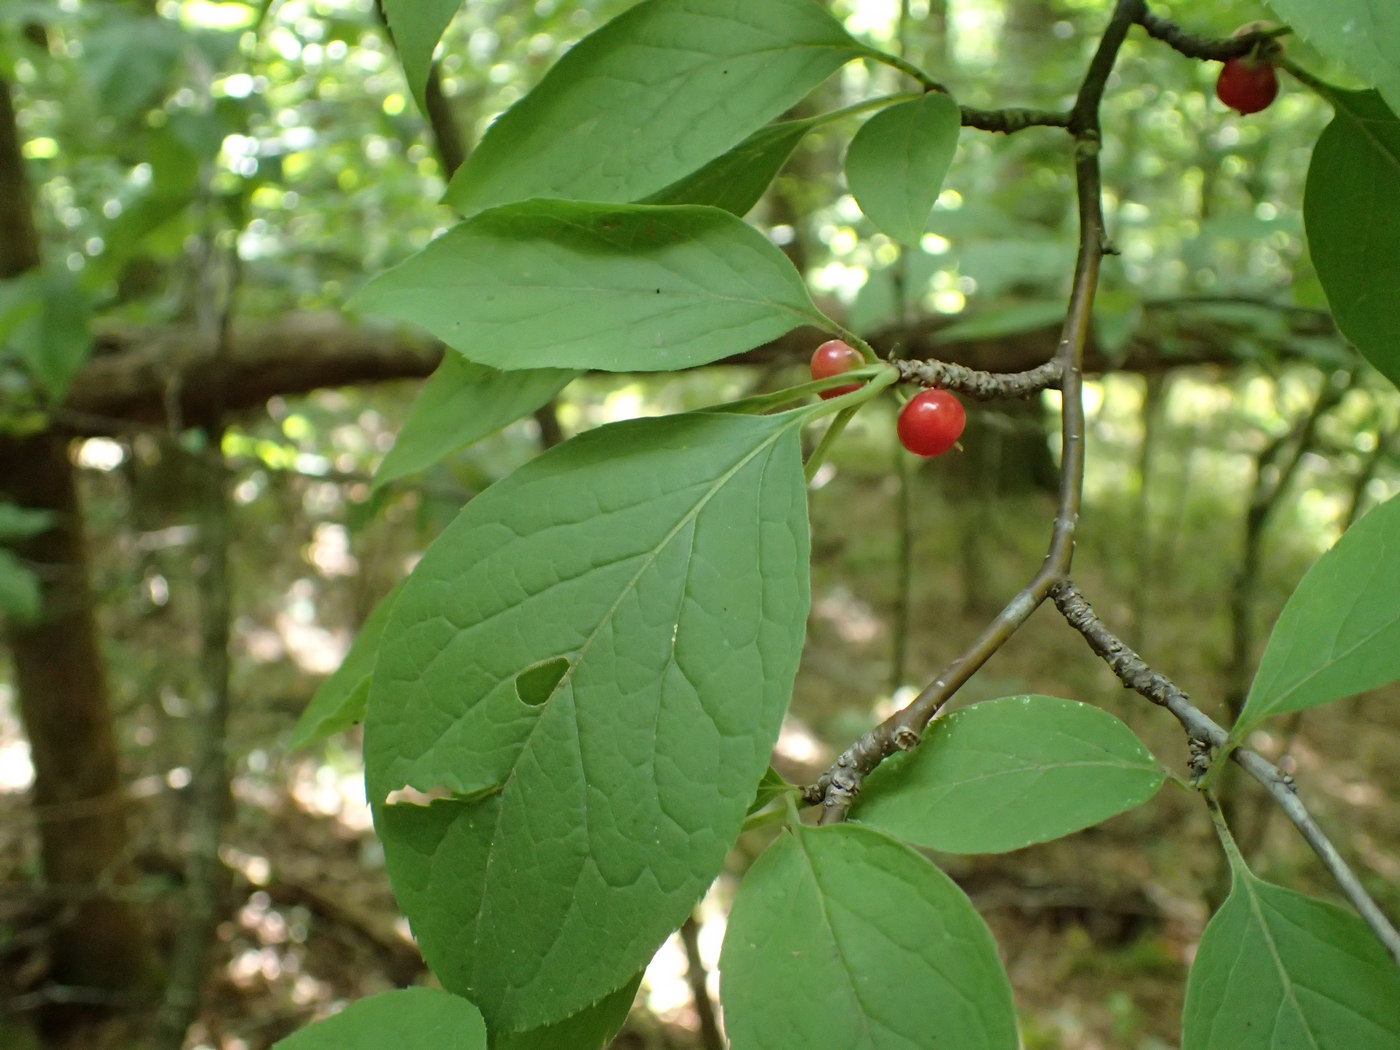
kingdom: Plantae
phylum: Tracheophyta
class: Magnoliopsida
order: Aquifoliales
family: Aquifoliaceae
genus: Ilex
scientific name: Ilex montana
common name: Mountain winterberry
